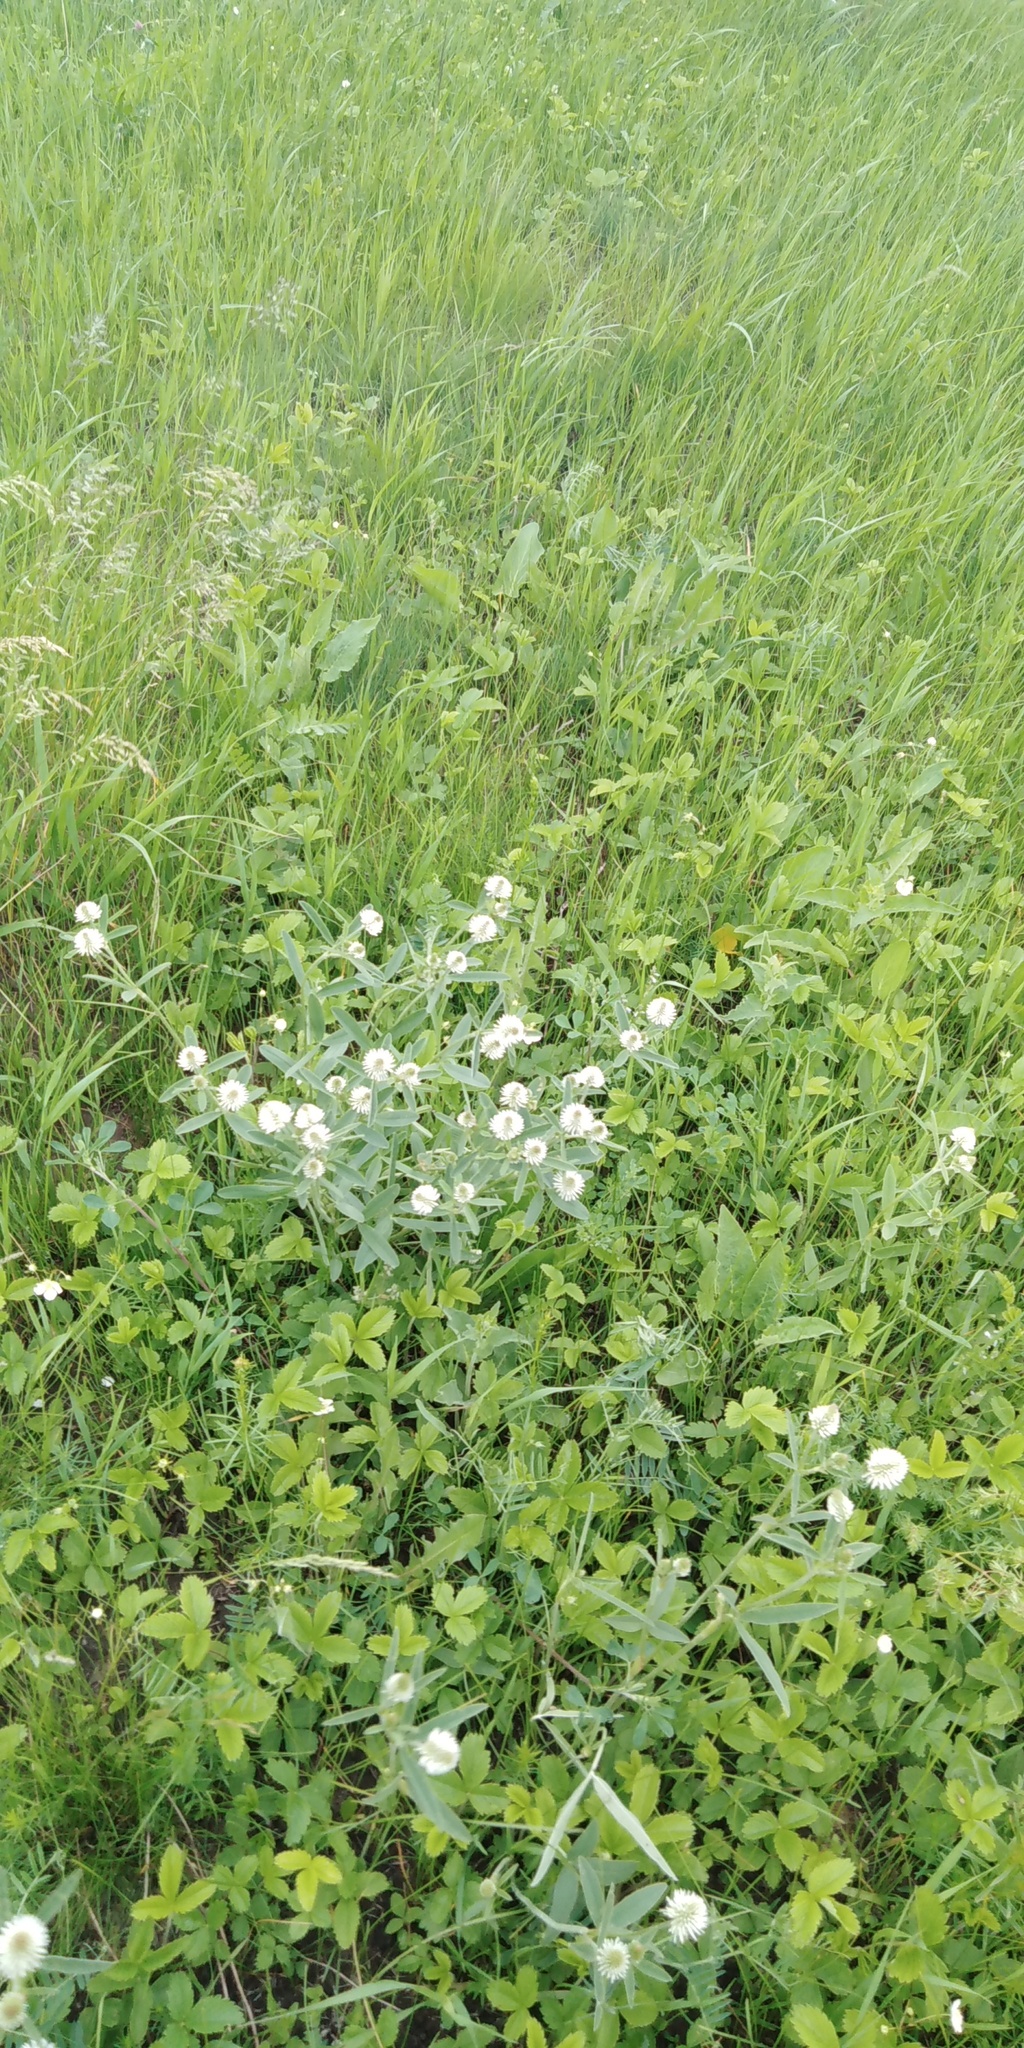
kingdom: Plantae
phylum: Tracheophyta
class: Magnoliopsida
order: Fabales
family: Fabaceae
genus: Trifolium
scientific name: Trifolium montanum
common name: Mountain clover
